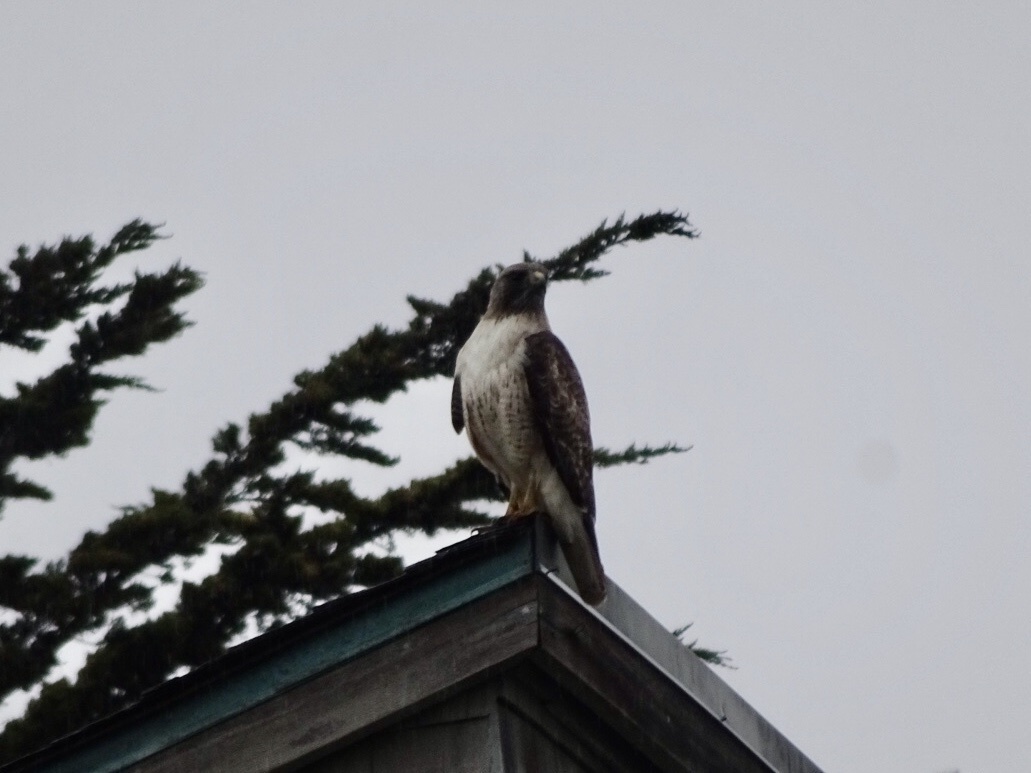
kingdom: Animalia
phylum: Chordata
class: Aves
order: Accipitriformes
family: Accipitridae
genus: Buteo
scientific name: Buteo jamaicensis
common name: Red-tailed hawk
